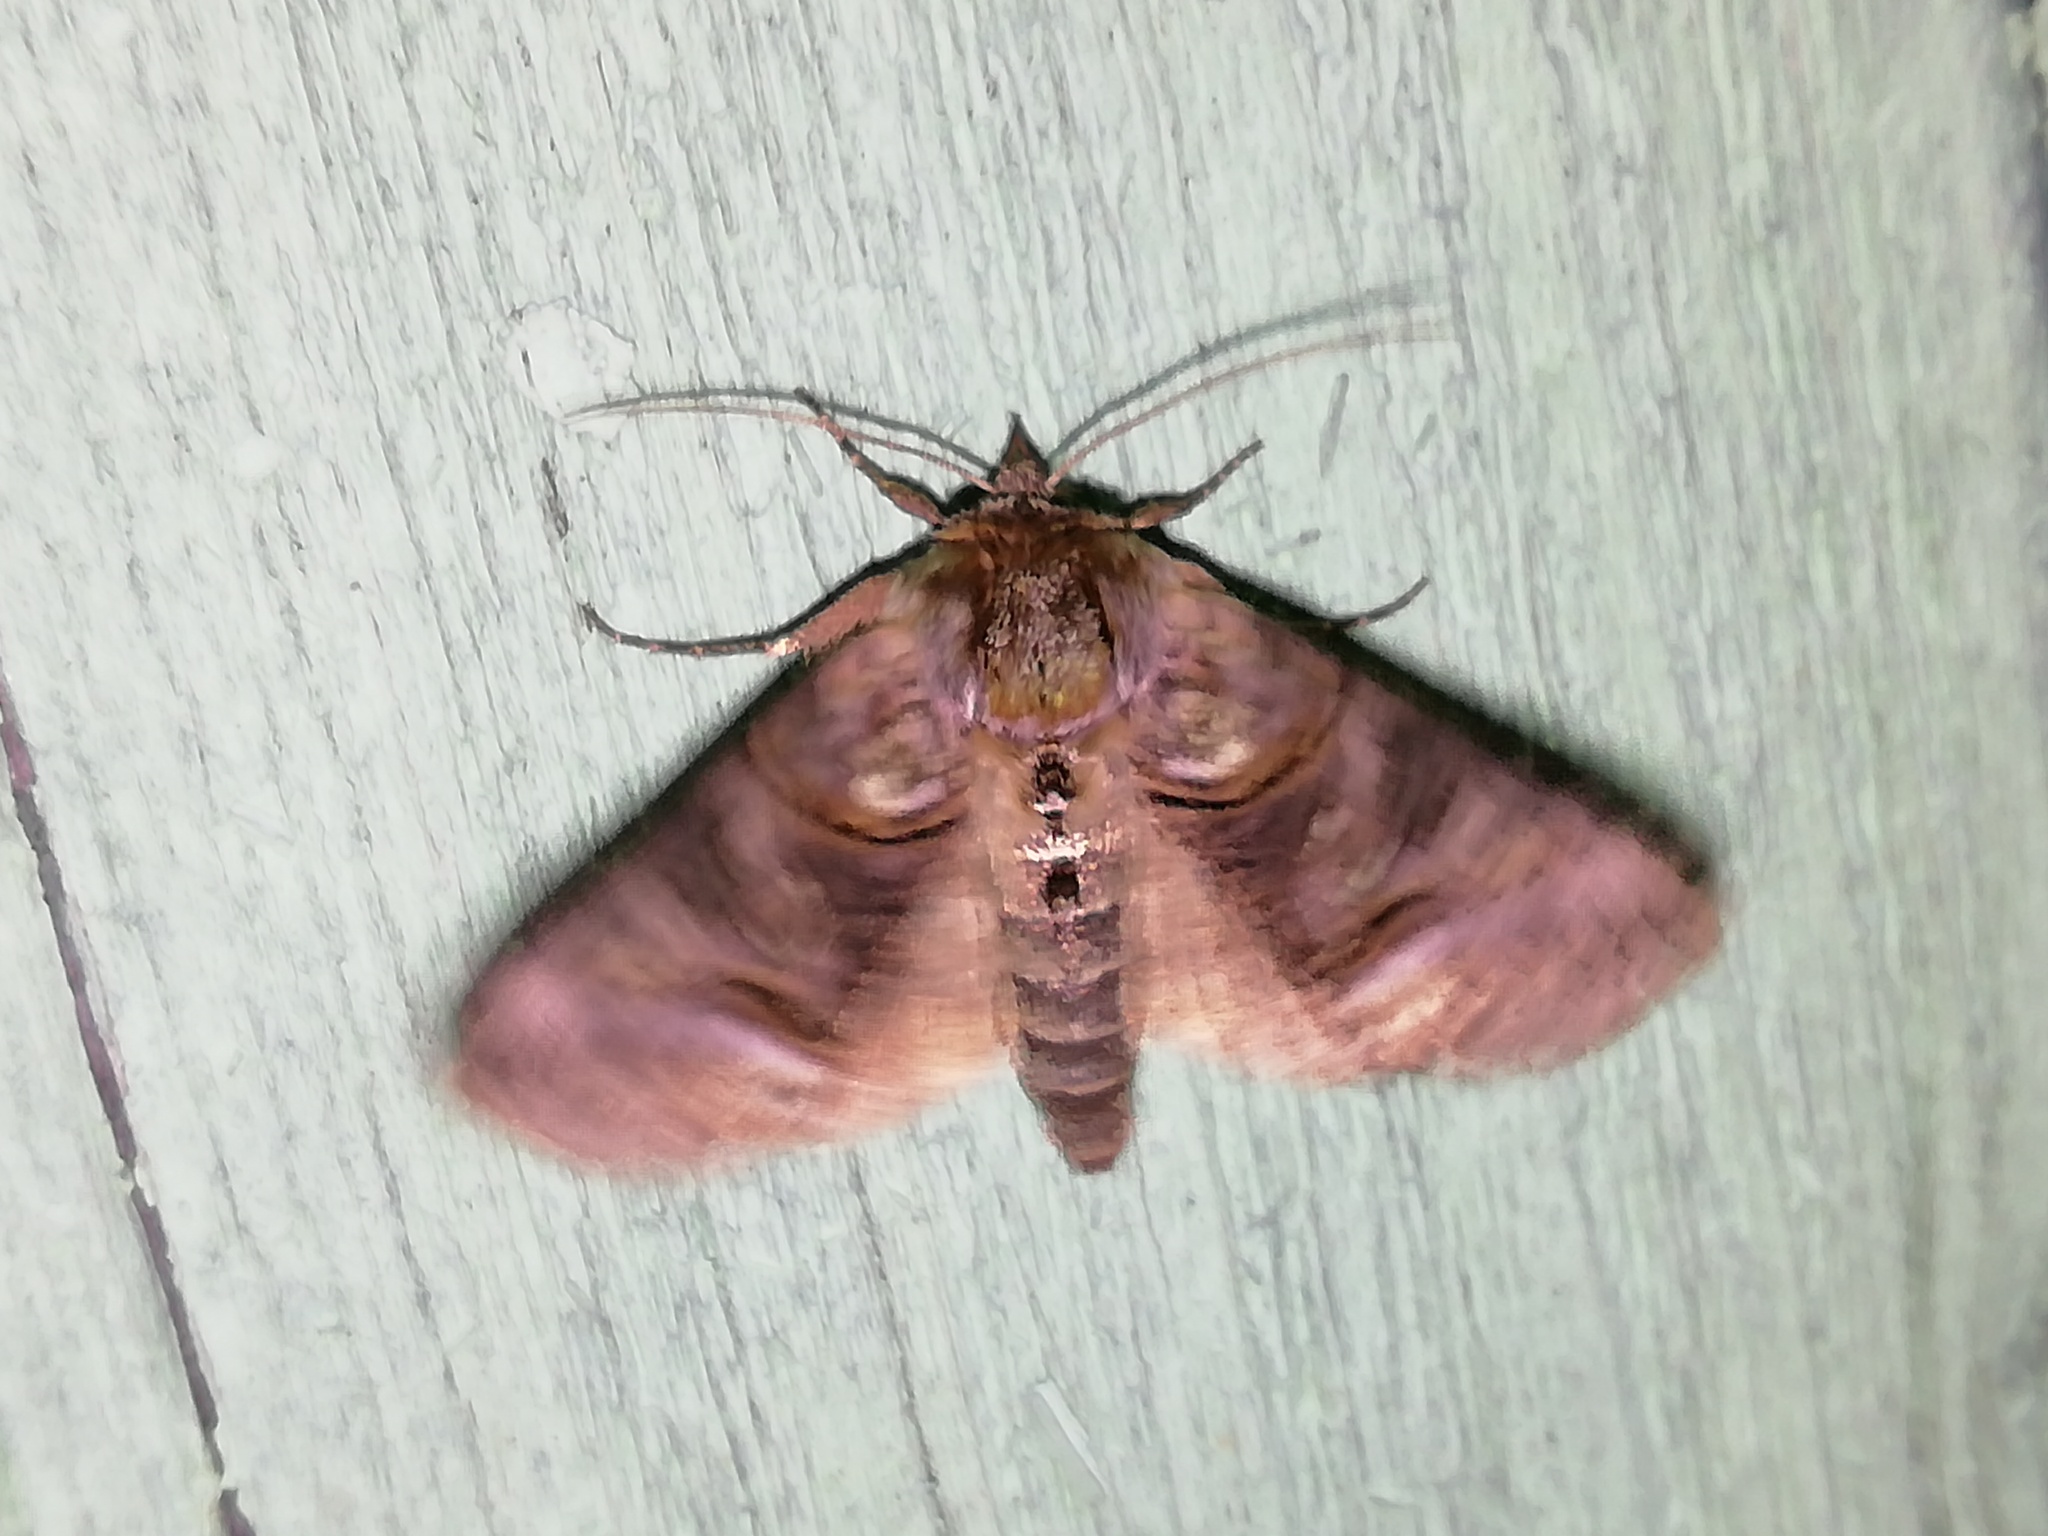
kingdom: Animalia
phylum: Arthropoda
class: Insecta
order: Lepidoptera
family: Noctuidae
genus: Abrostola
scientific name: Abrostola tripartita
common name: Spectacle
